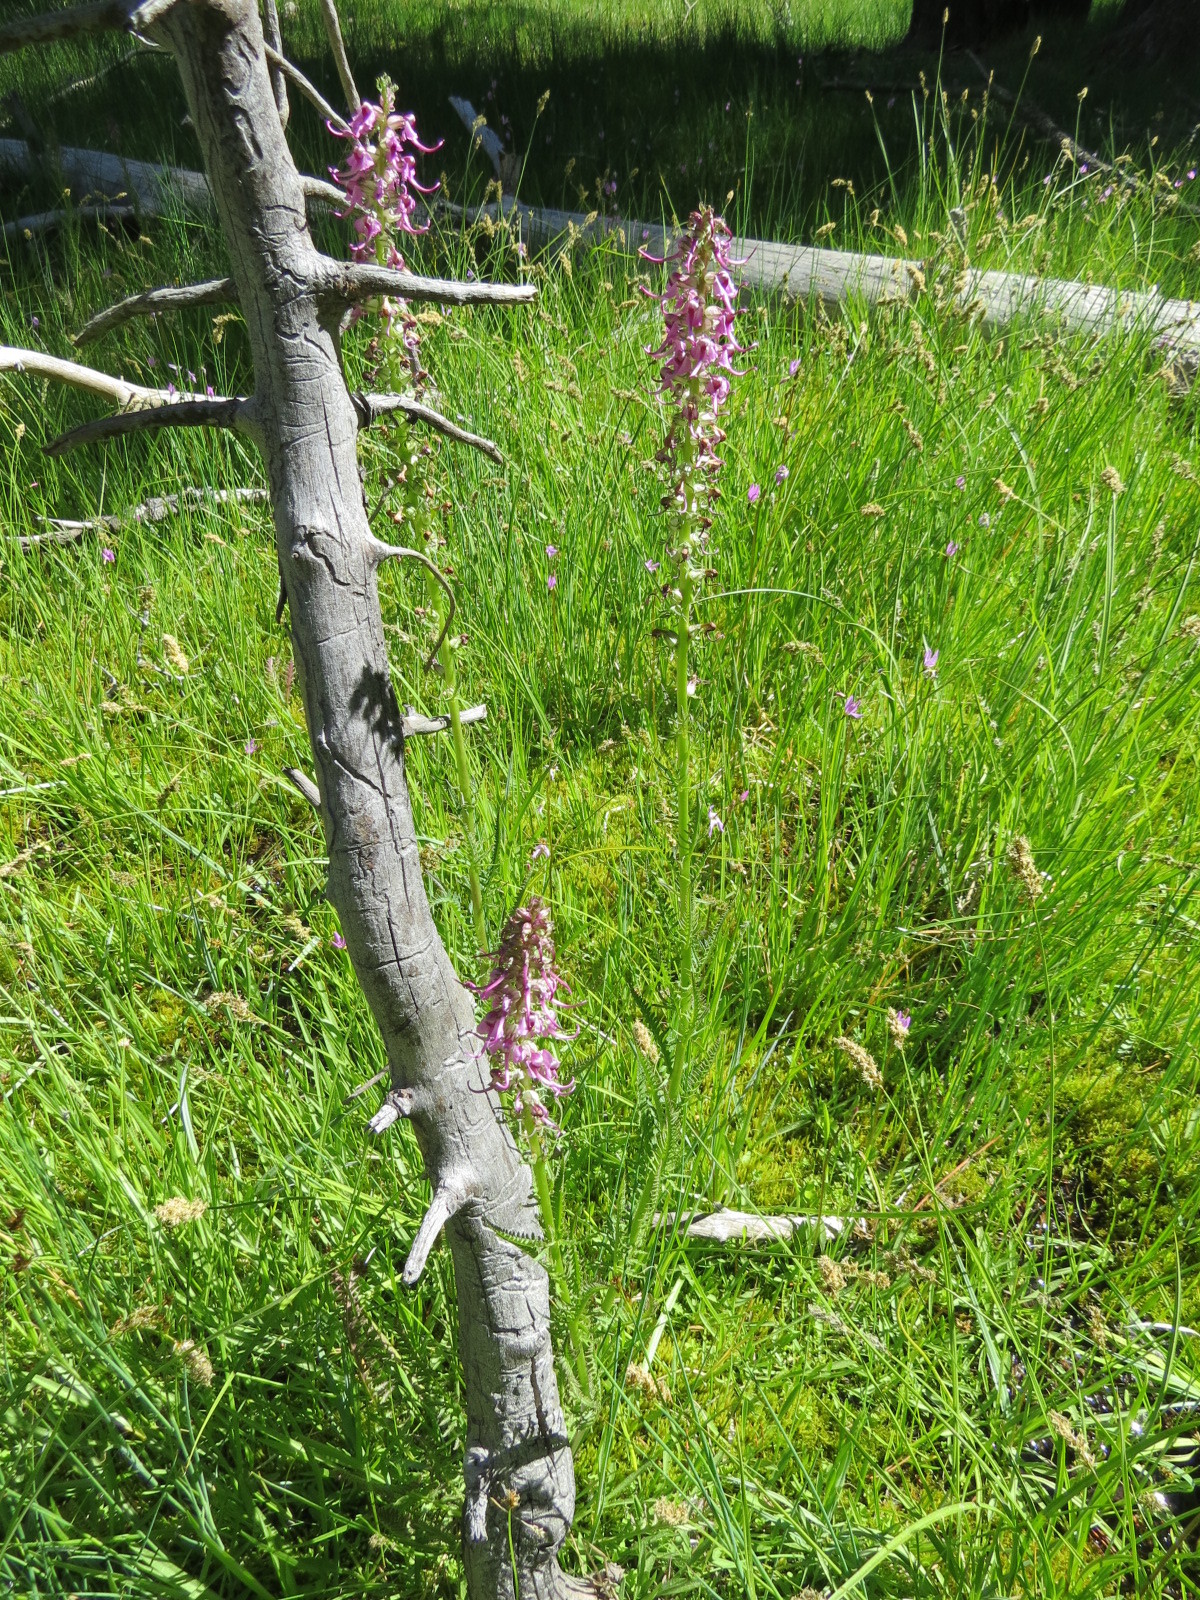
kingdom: Plantae
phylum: Tracheophyta
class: Magnoliopsida
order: Lamiales
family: Orobanchaceae
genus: Pedicularis
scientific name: Pedicularis groenlandica
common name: Elephant's-head
